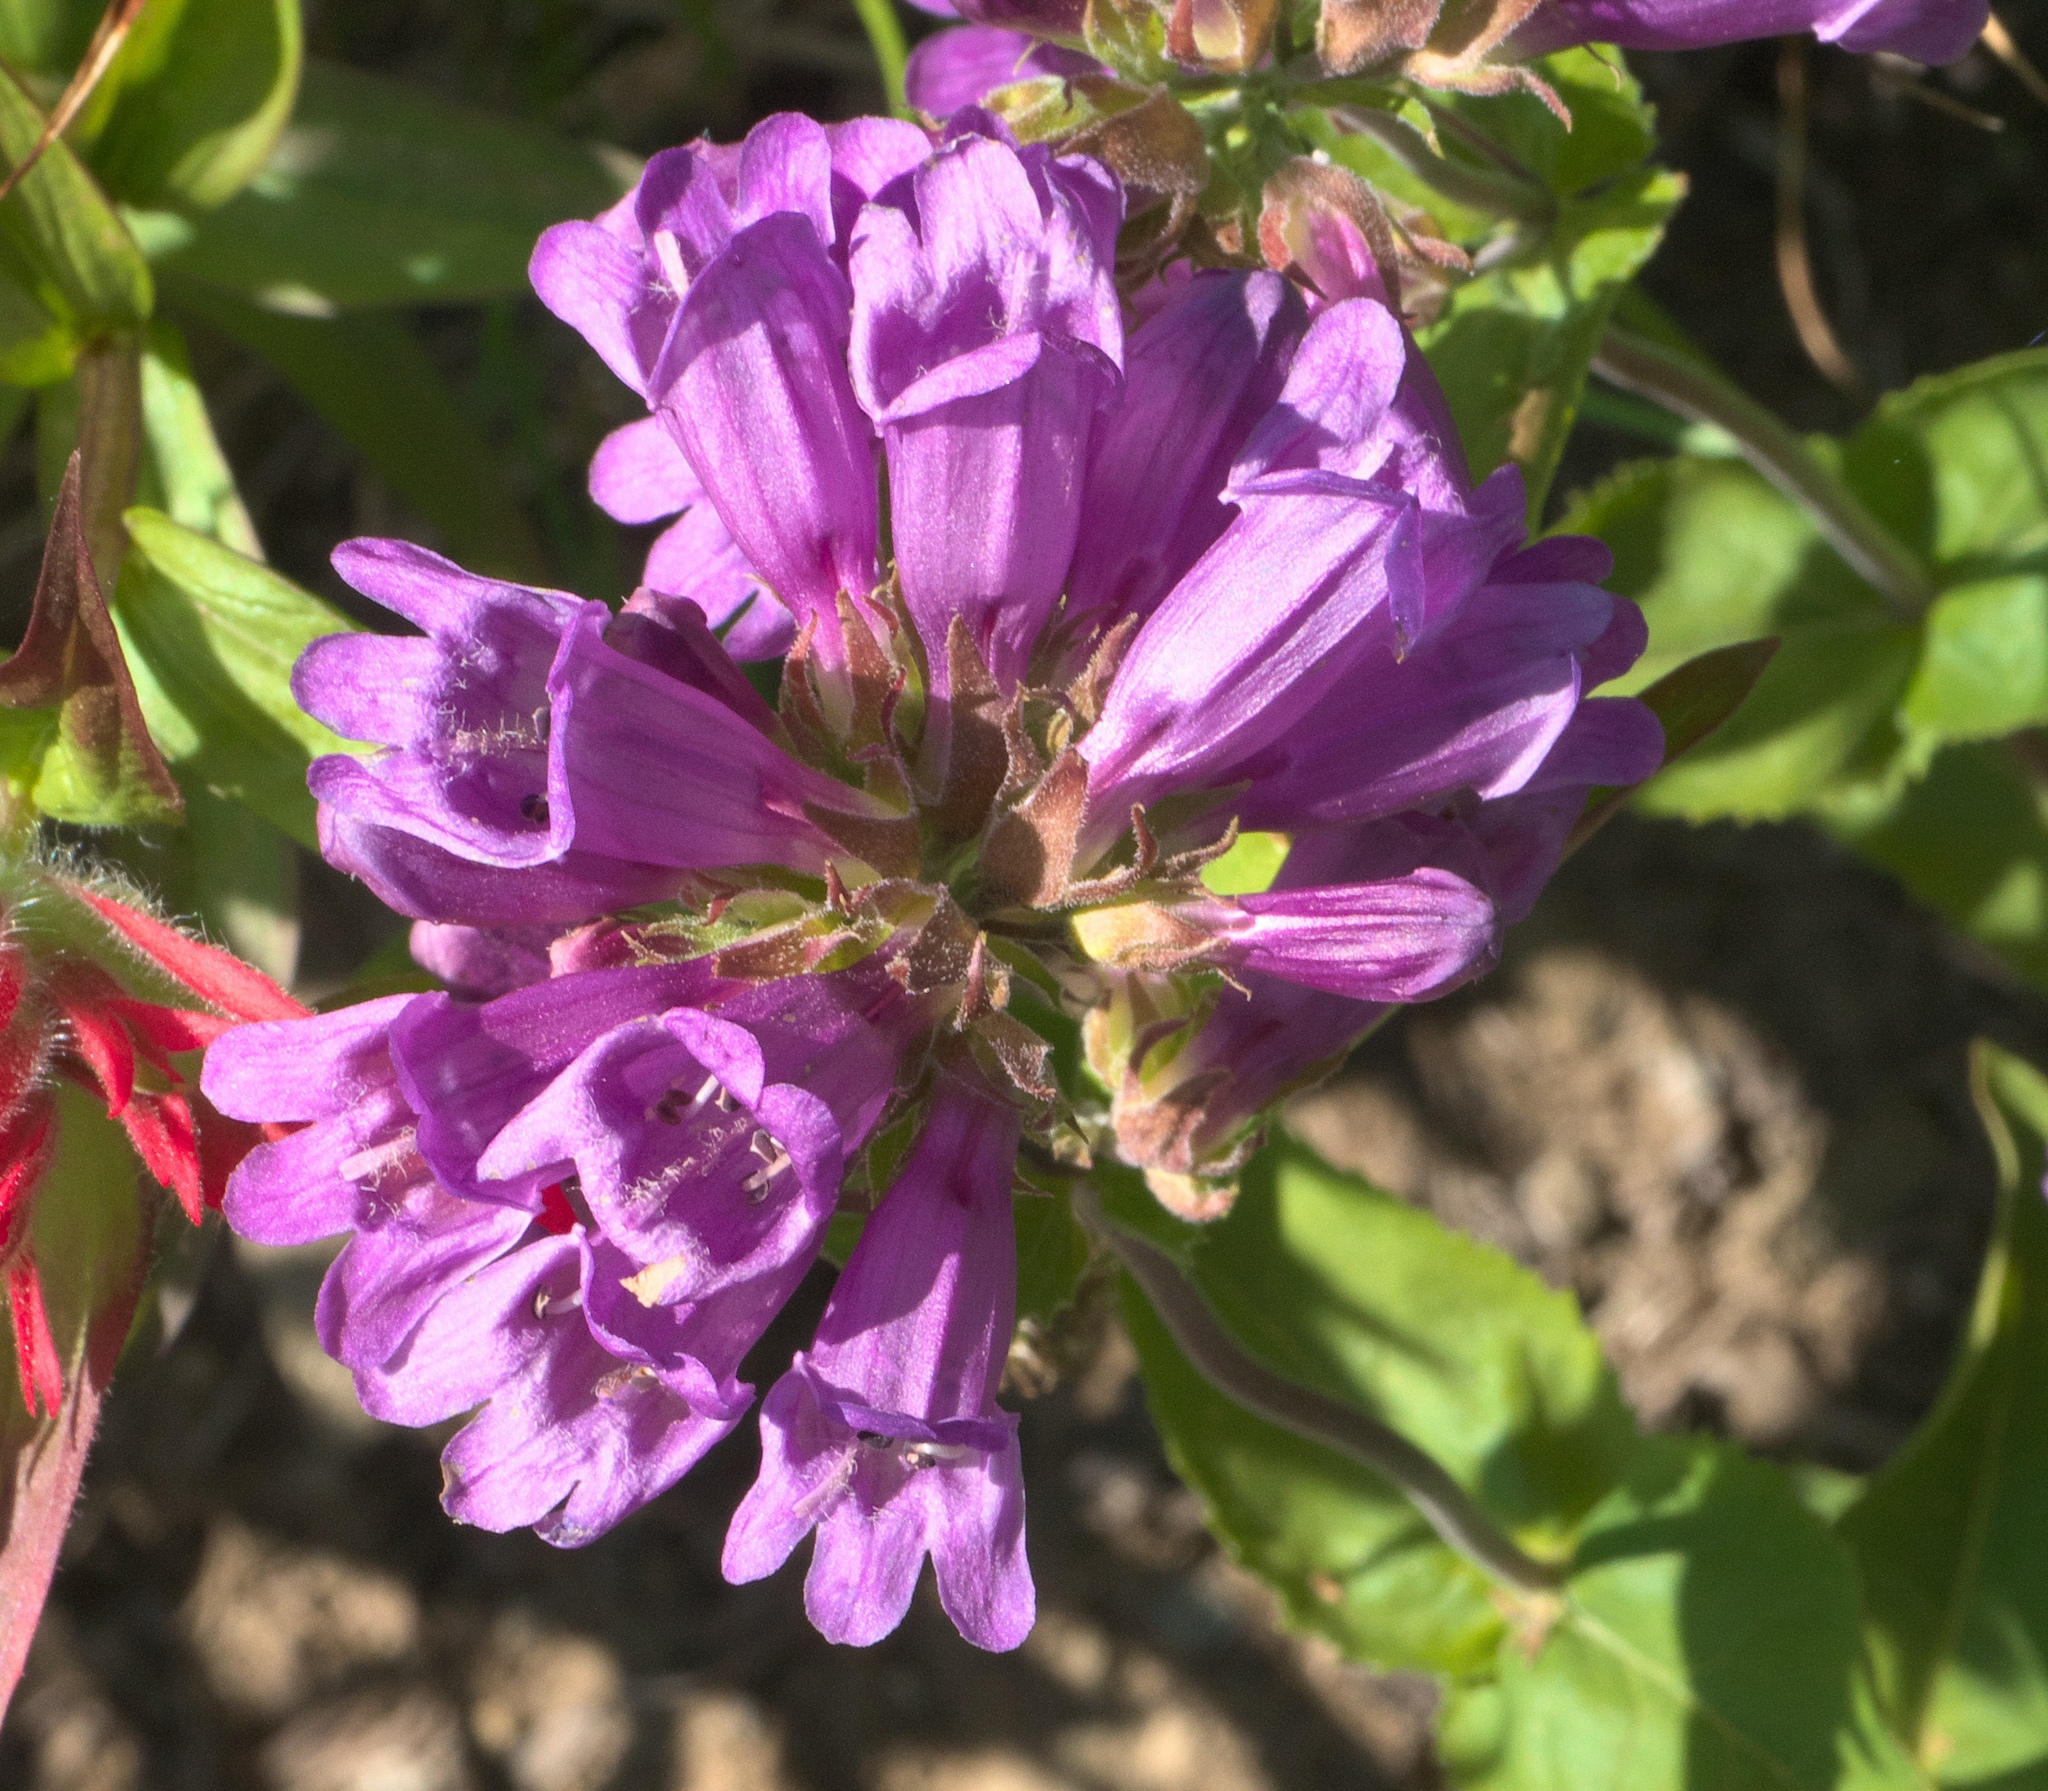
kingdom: Plantae
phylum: Tracheophyta
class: Magnoliopsida
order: Lamiales
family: Plantaginaceae
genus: Penstemon
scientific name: Penstemon serrulatus
